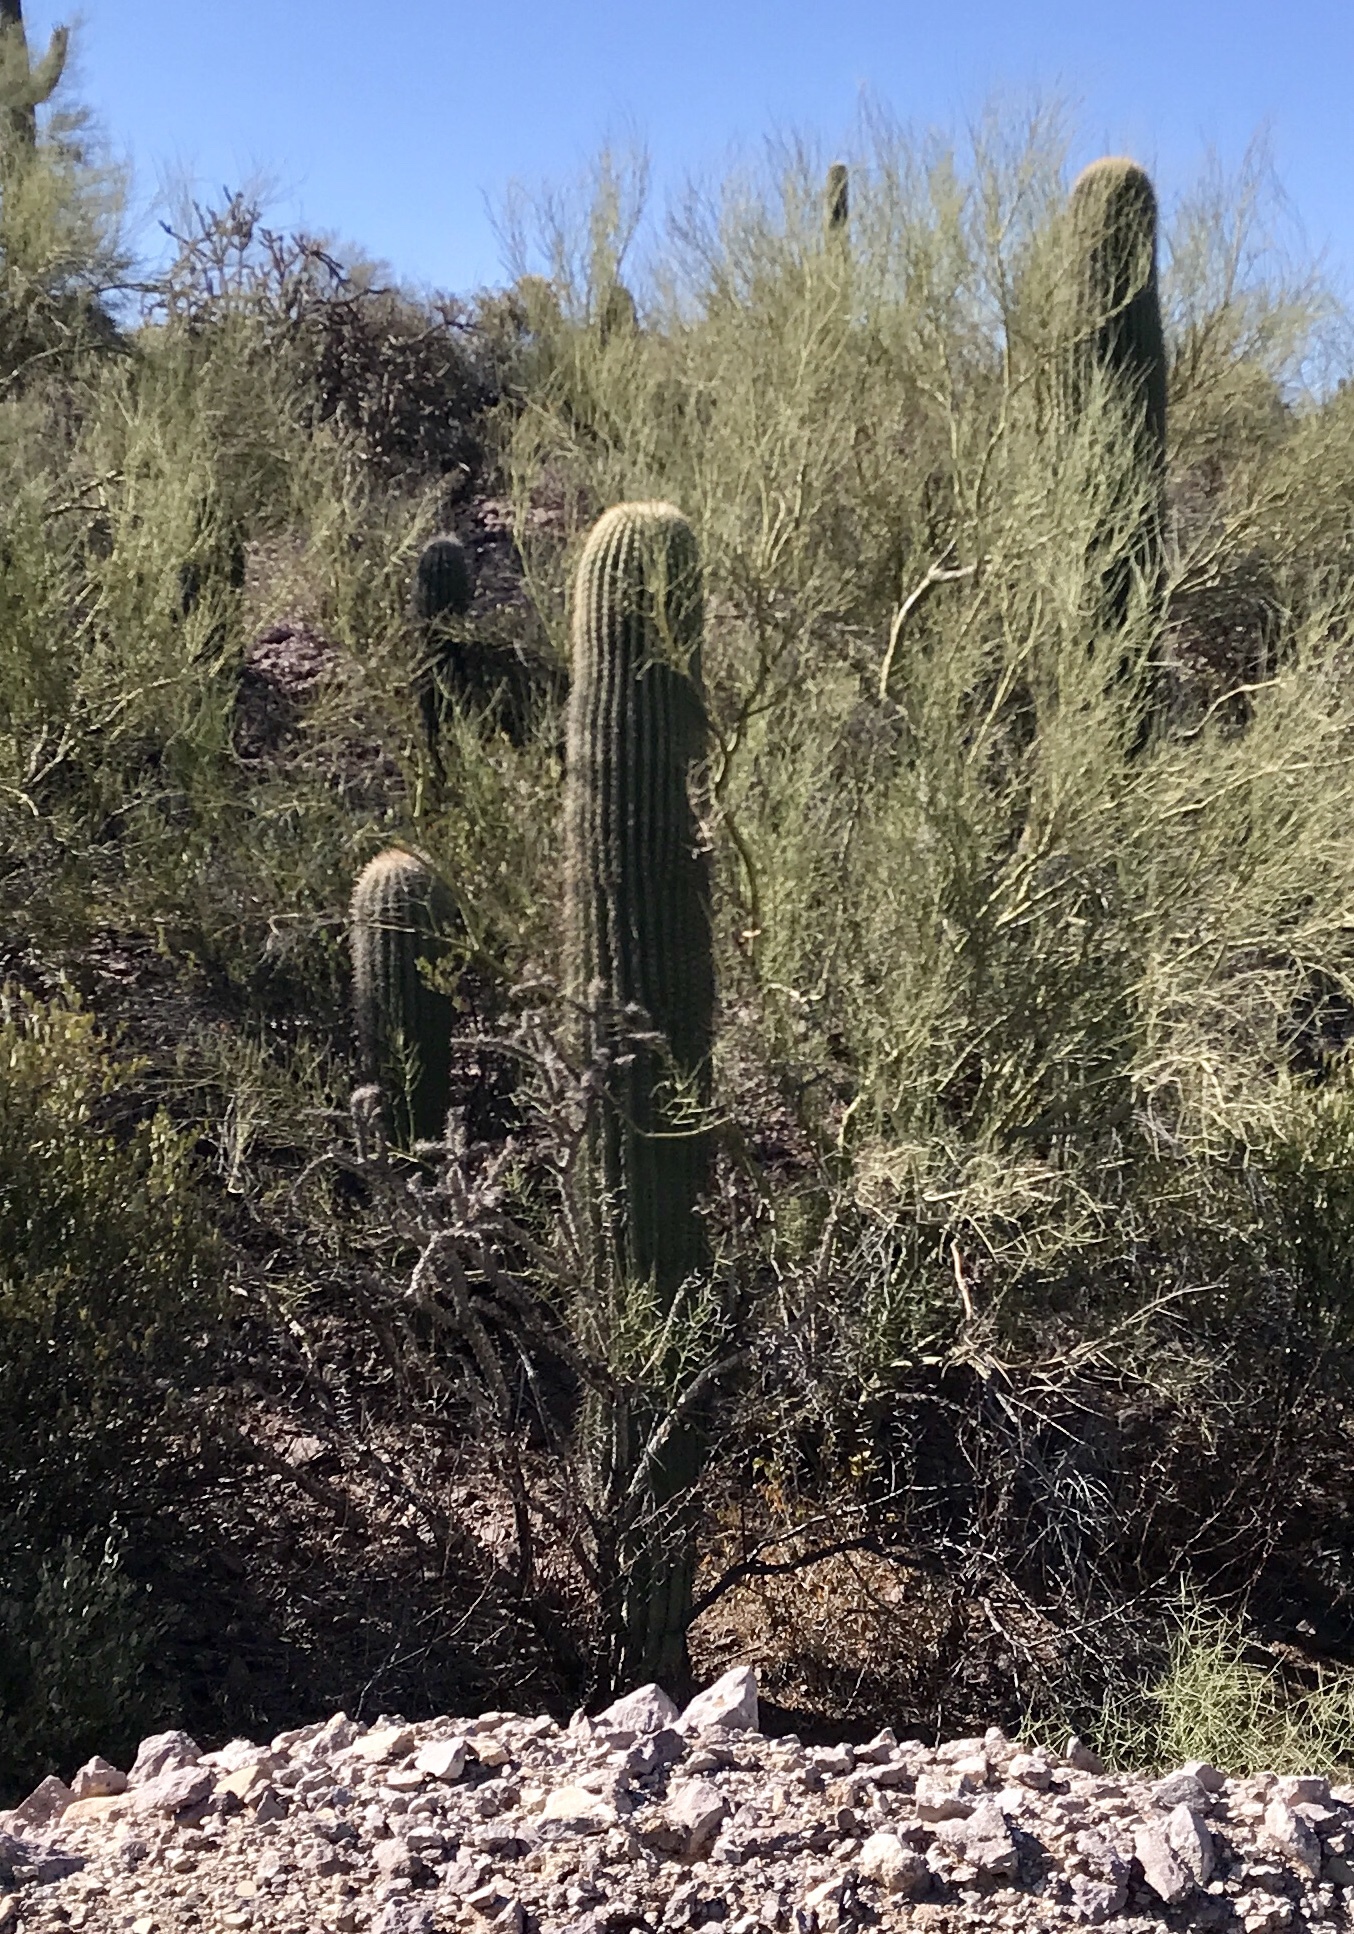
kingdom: Plantae
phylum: Tracheophyta
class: Magnoliopsida
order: Caryophyllales
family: Cactaceae
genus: Carnegiea
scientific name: Carnegiea gigantea
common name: Saguaro
